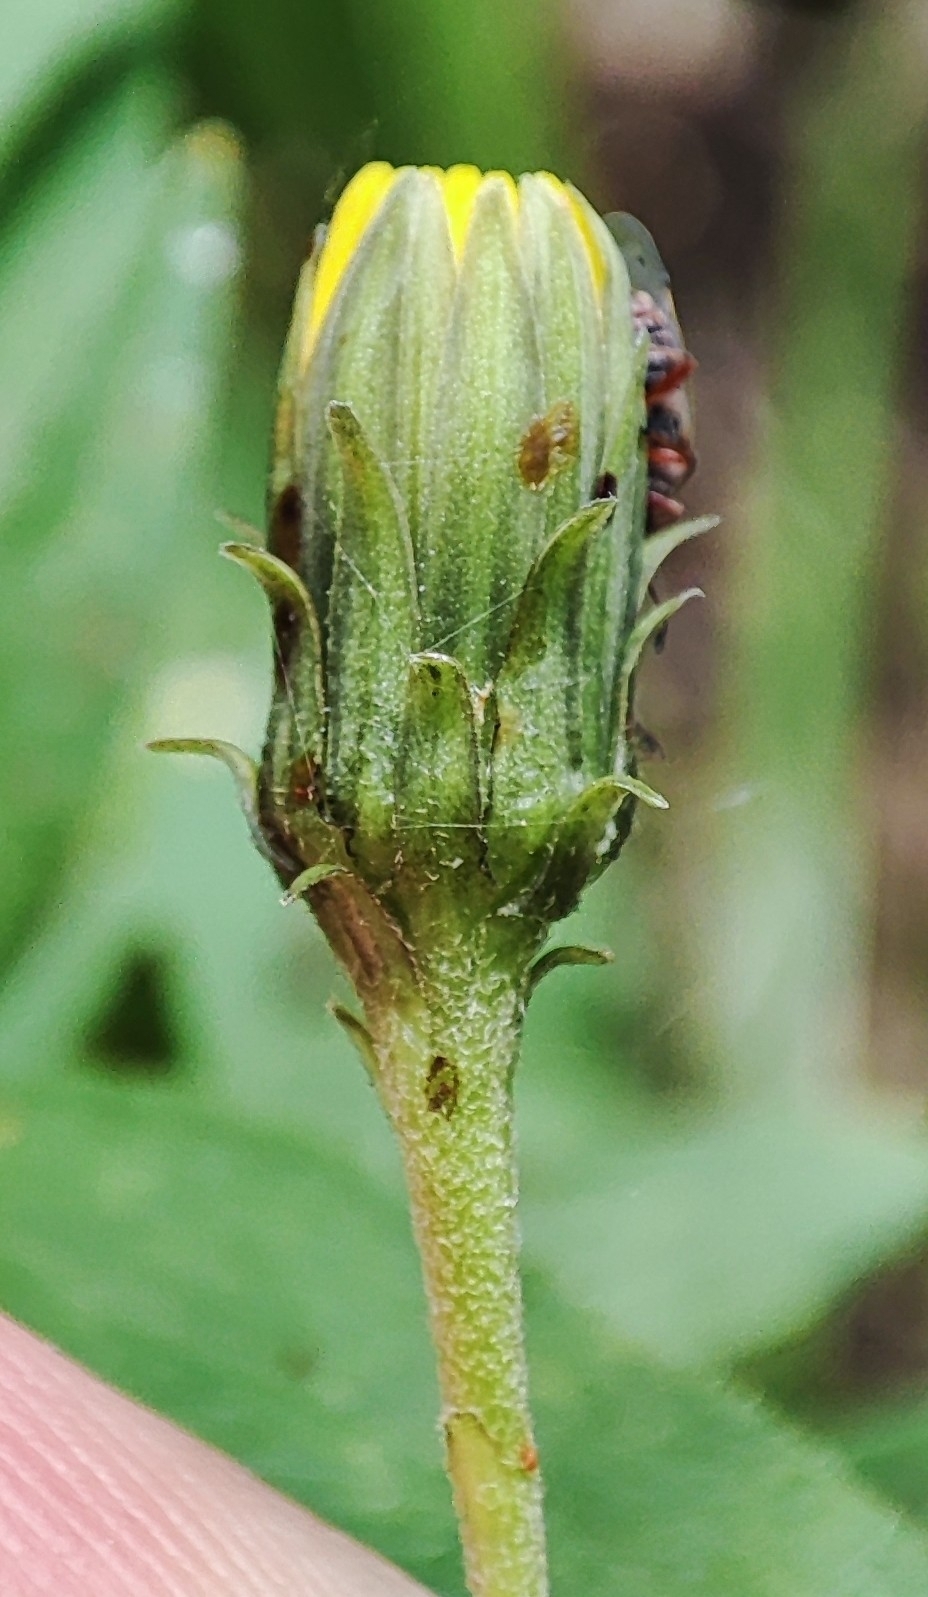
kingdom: Plantae
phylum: Tracheophyta
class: Magnoliopsida
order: Asterales
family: Asteraceae
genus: Hieracium
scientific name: Hieracium umbellatum
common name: Northern hawkweed
